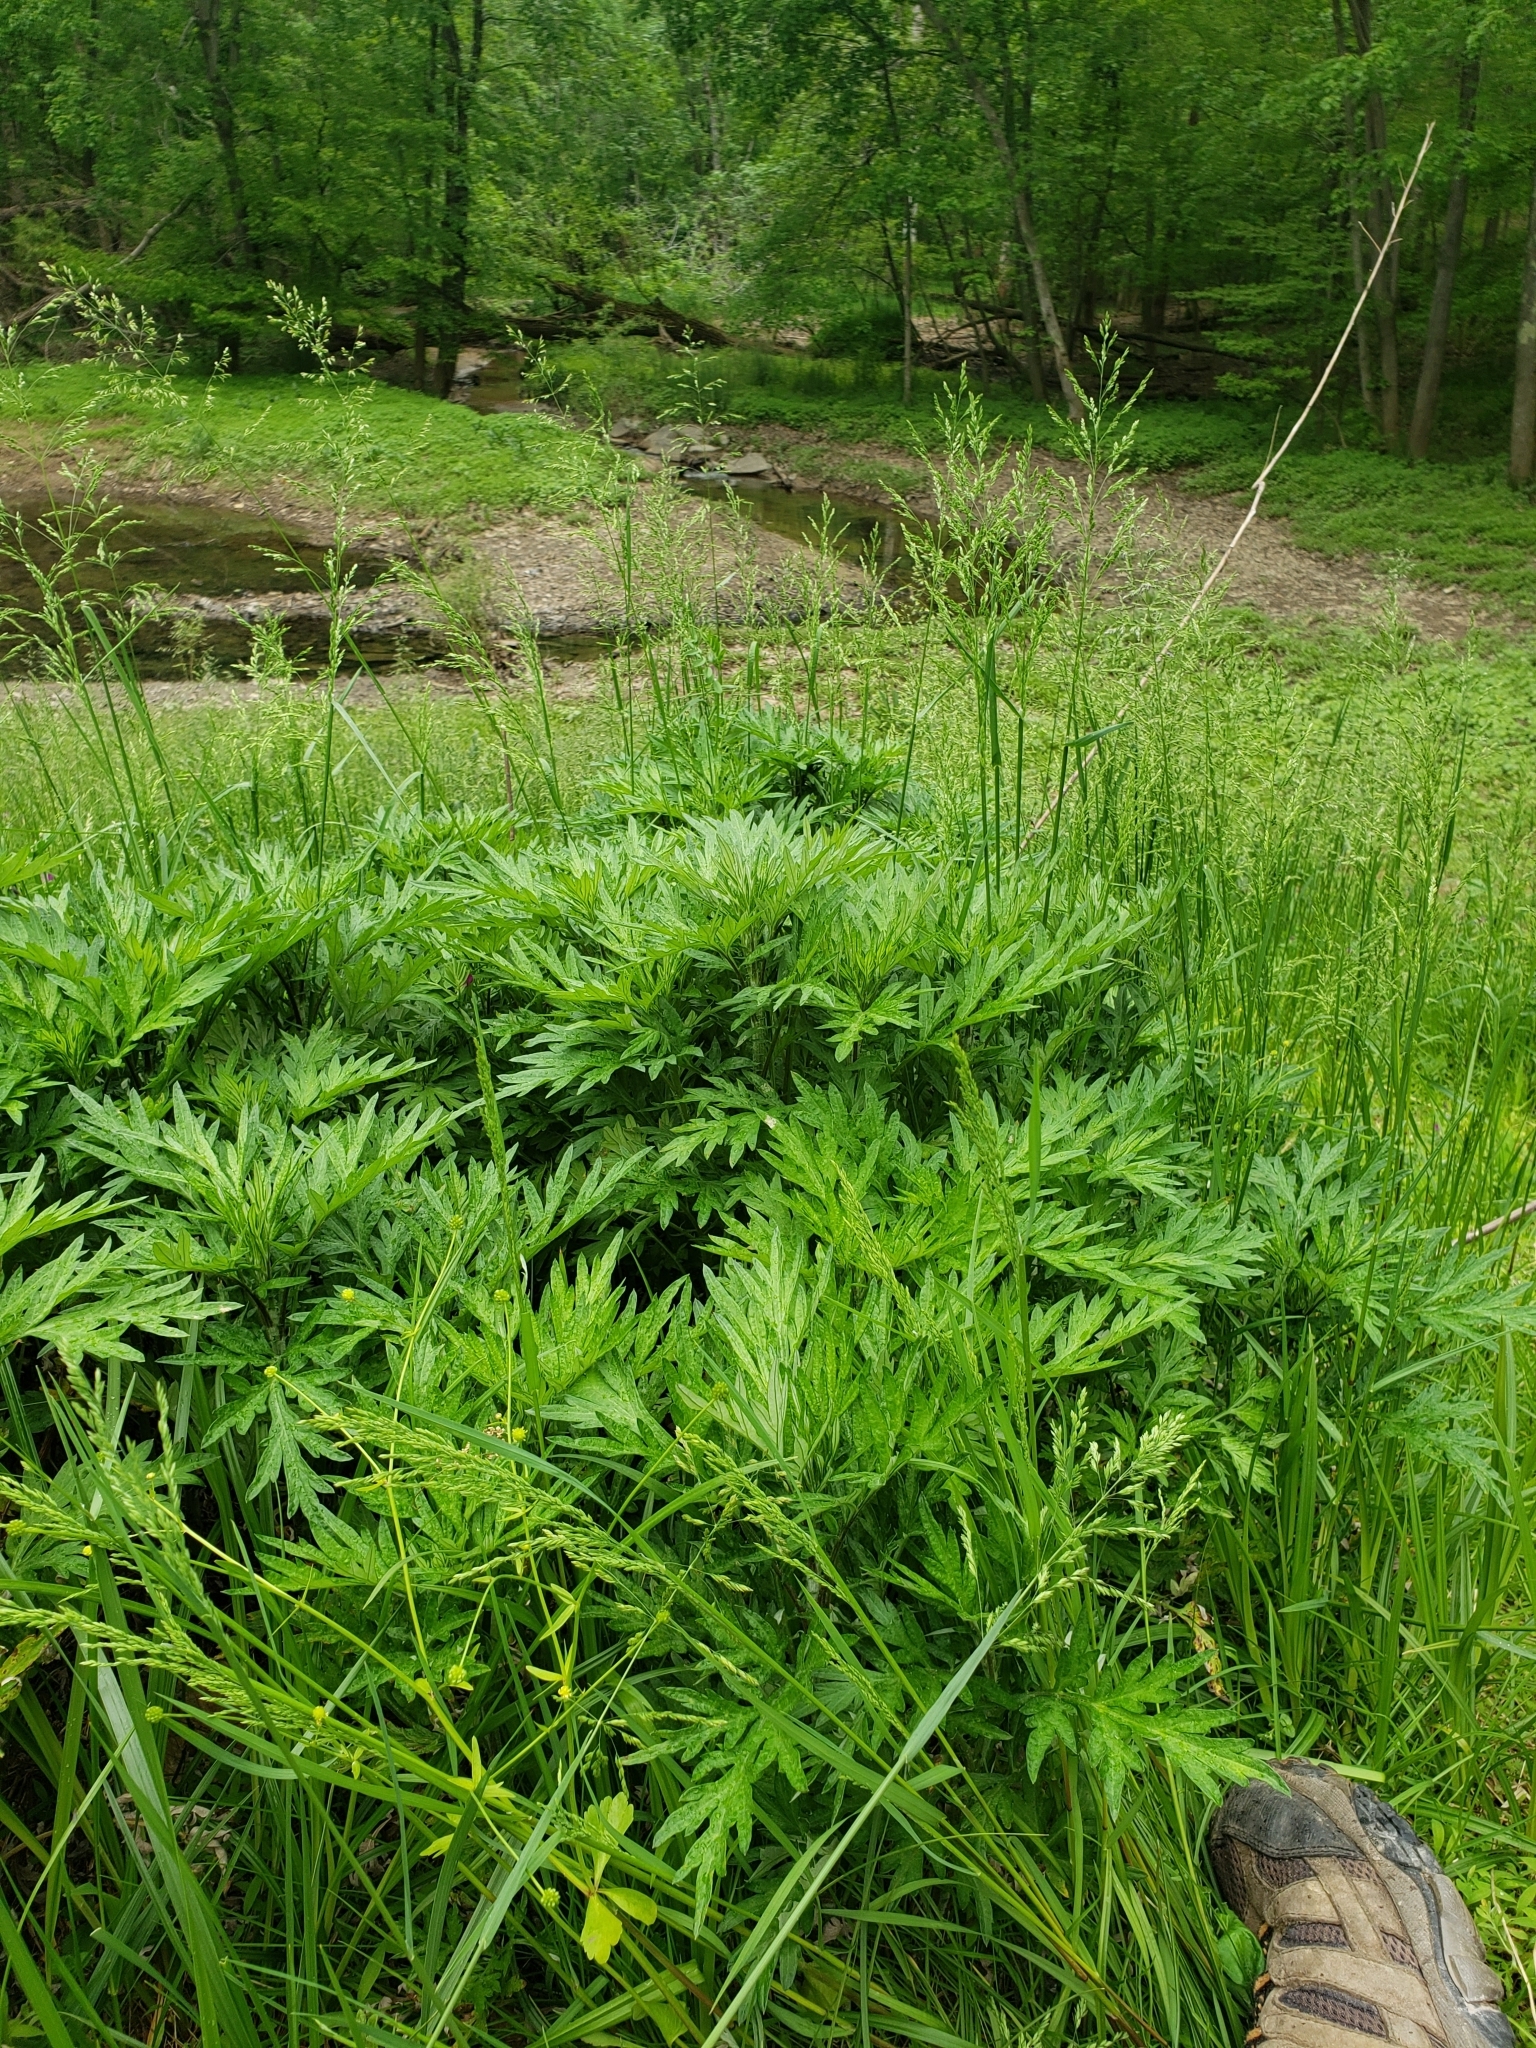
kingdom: Plantae
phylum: Tracheophyta
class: Magnoliopsida
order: Asterales
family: Asteraceae
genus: Artemisia
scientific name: Artemisia vulgaris
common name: Mugwort
